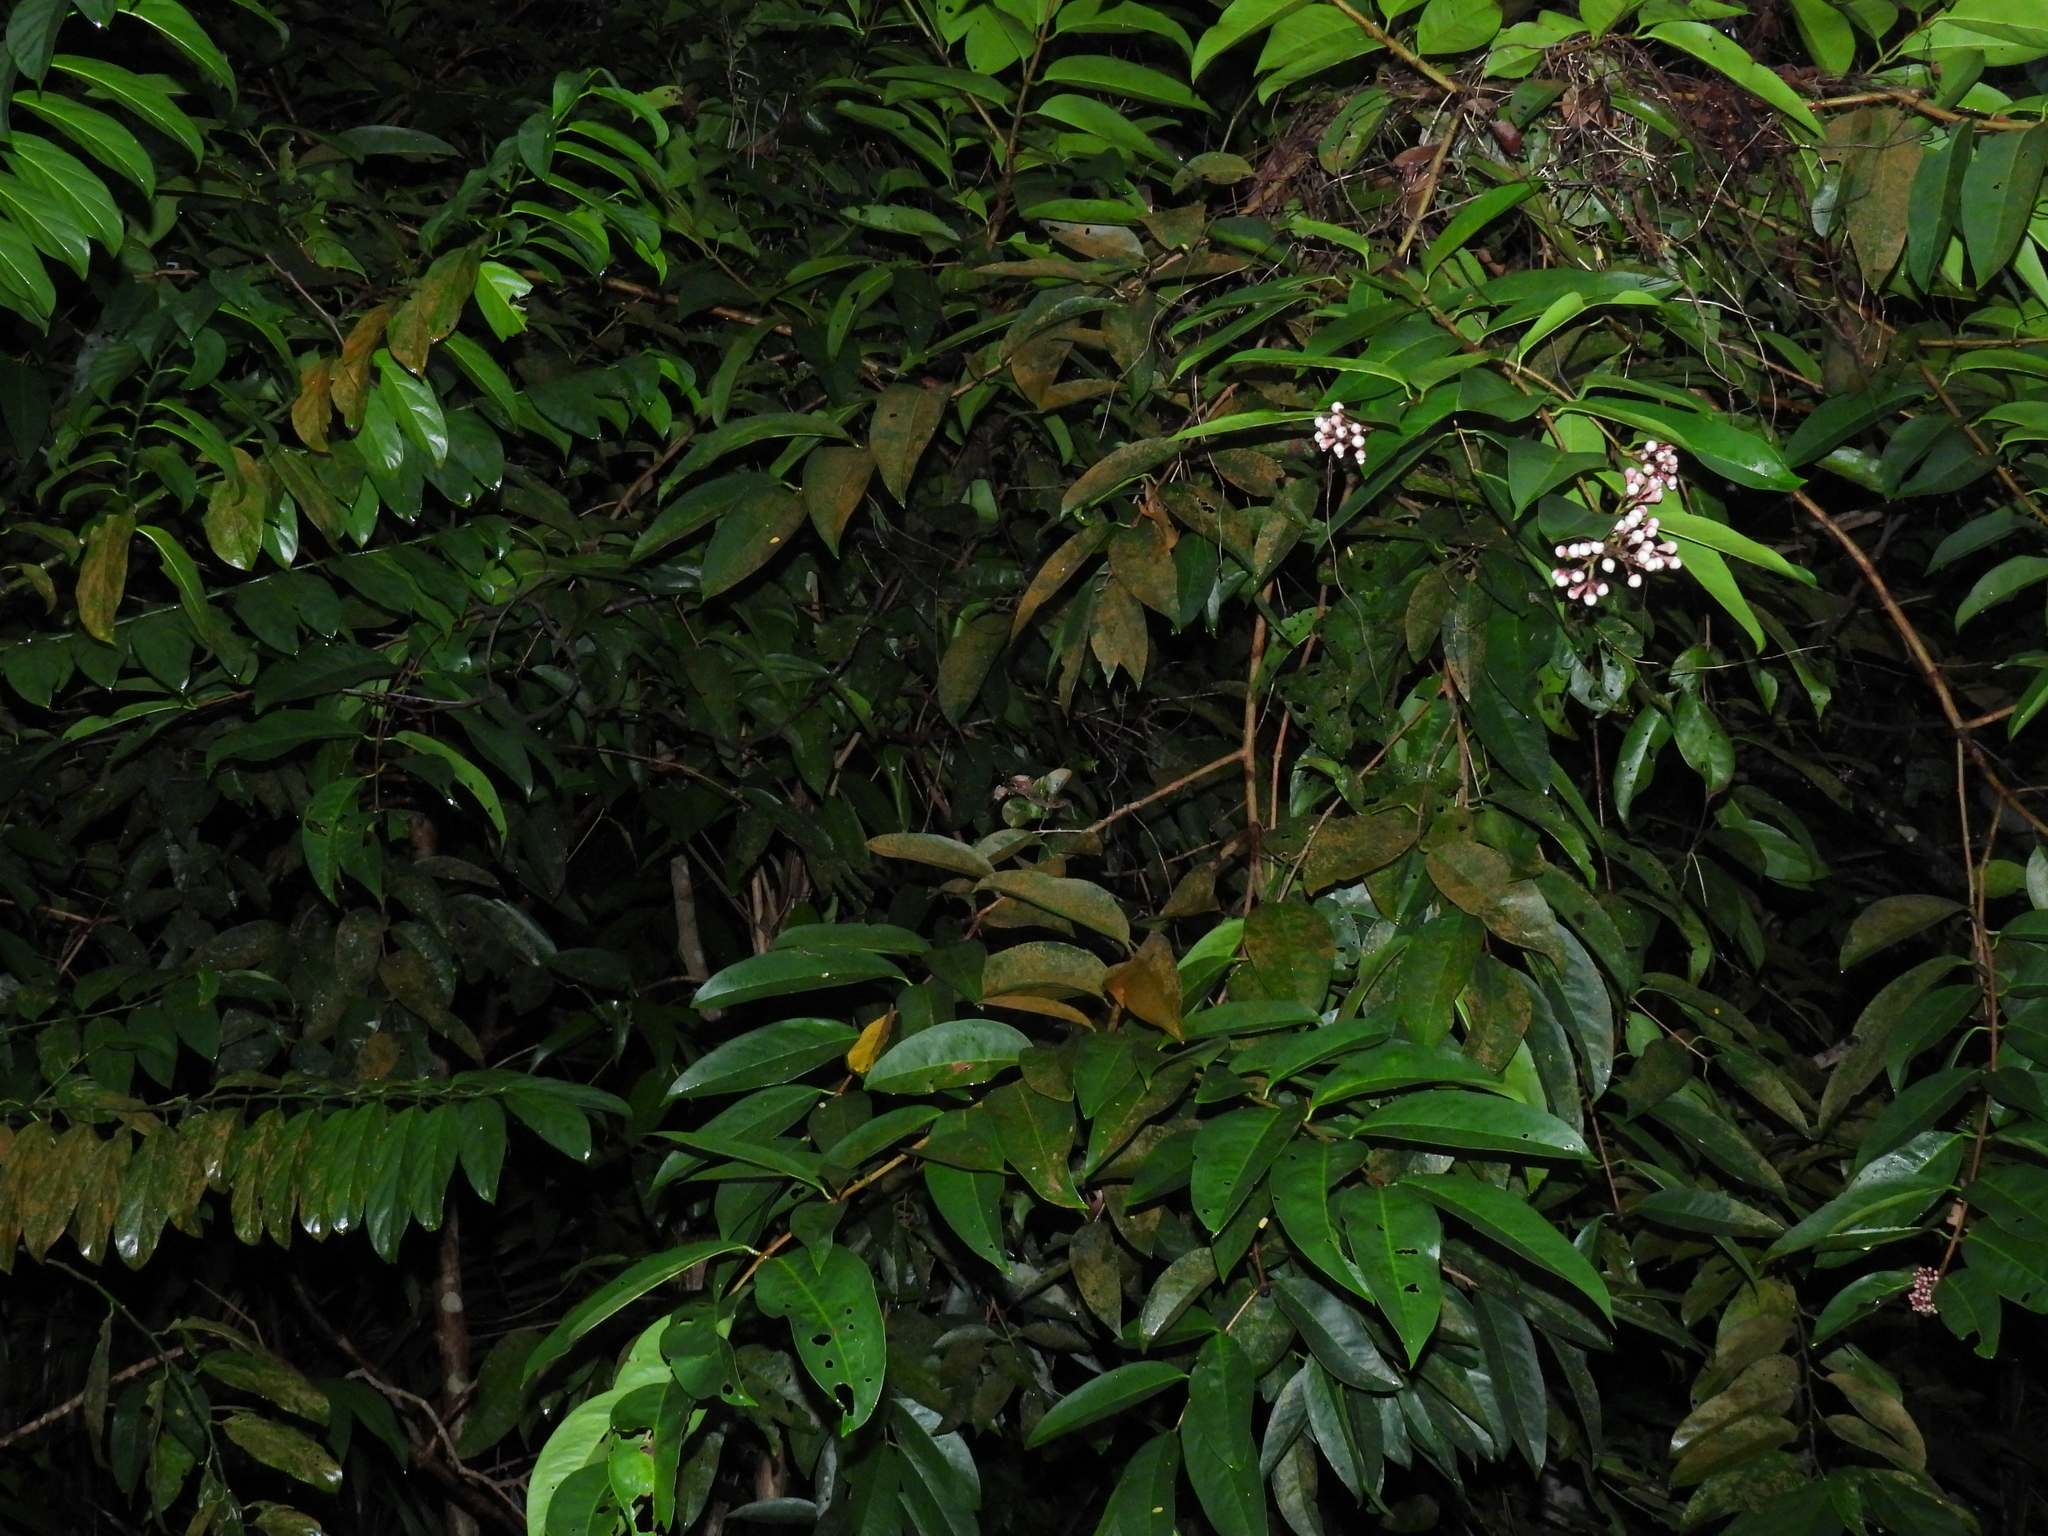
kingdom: Plantae
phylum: Tracheophyta
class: Magnoliopsida
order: Myrtales
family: Myrtaceae
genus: Syzygium
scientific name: Syzygium pycnanthum
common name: Wild rose
